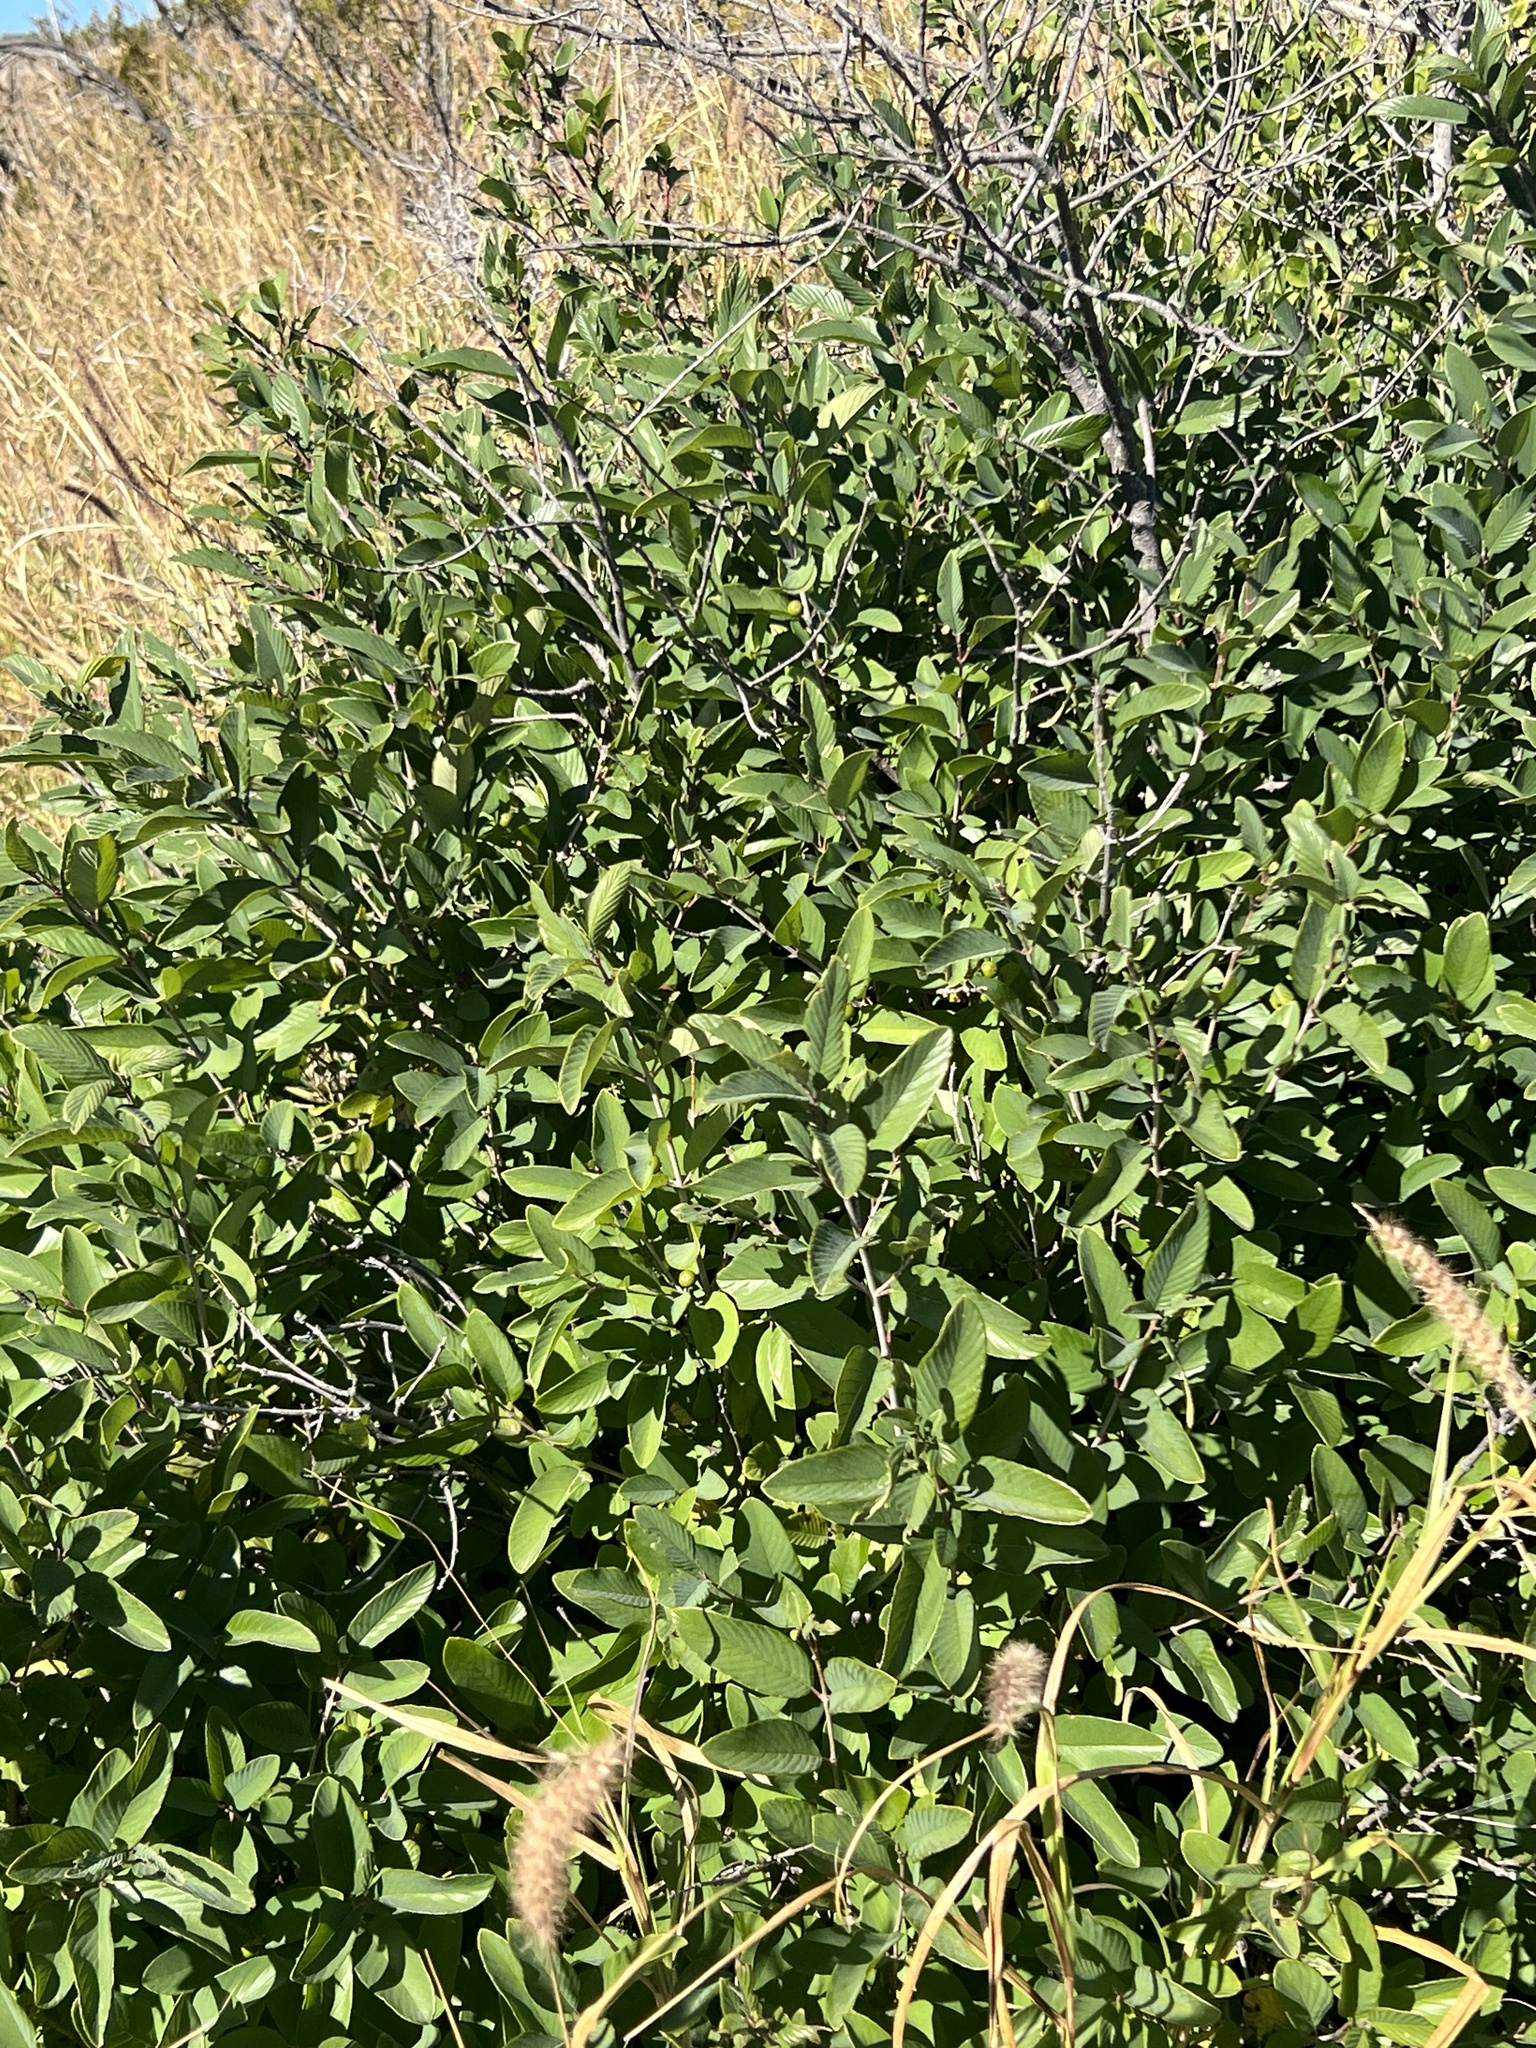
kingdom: Plantae
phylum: Tracheophyta
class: Magnoliopsida
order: Rosales
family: Rhamnaceae
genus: Karwinskia
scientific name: Karwinskia humboldtiana
